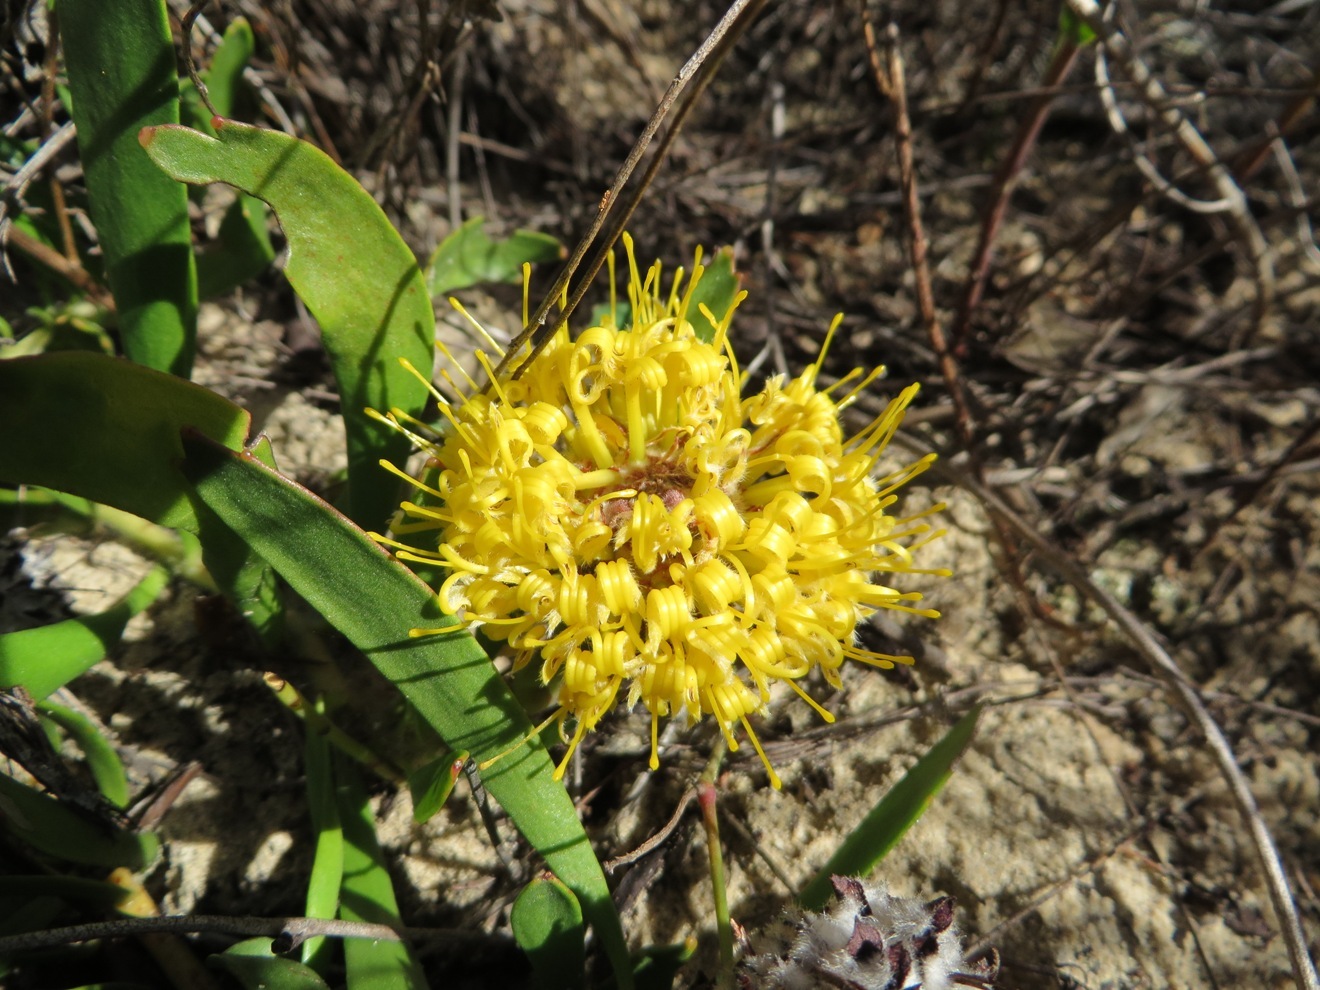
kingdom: Plantae
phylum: Tracheophyta
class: Magnoliopsida
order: Proteales
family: Proteaceae
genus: Leucospermum
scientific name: Leucospermum hypophyllocarpodendron
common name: Snakestem pincushion
